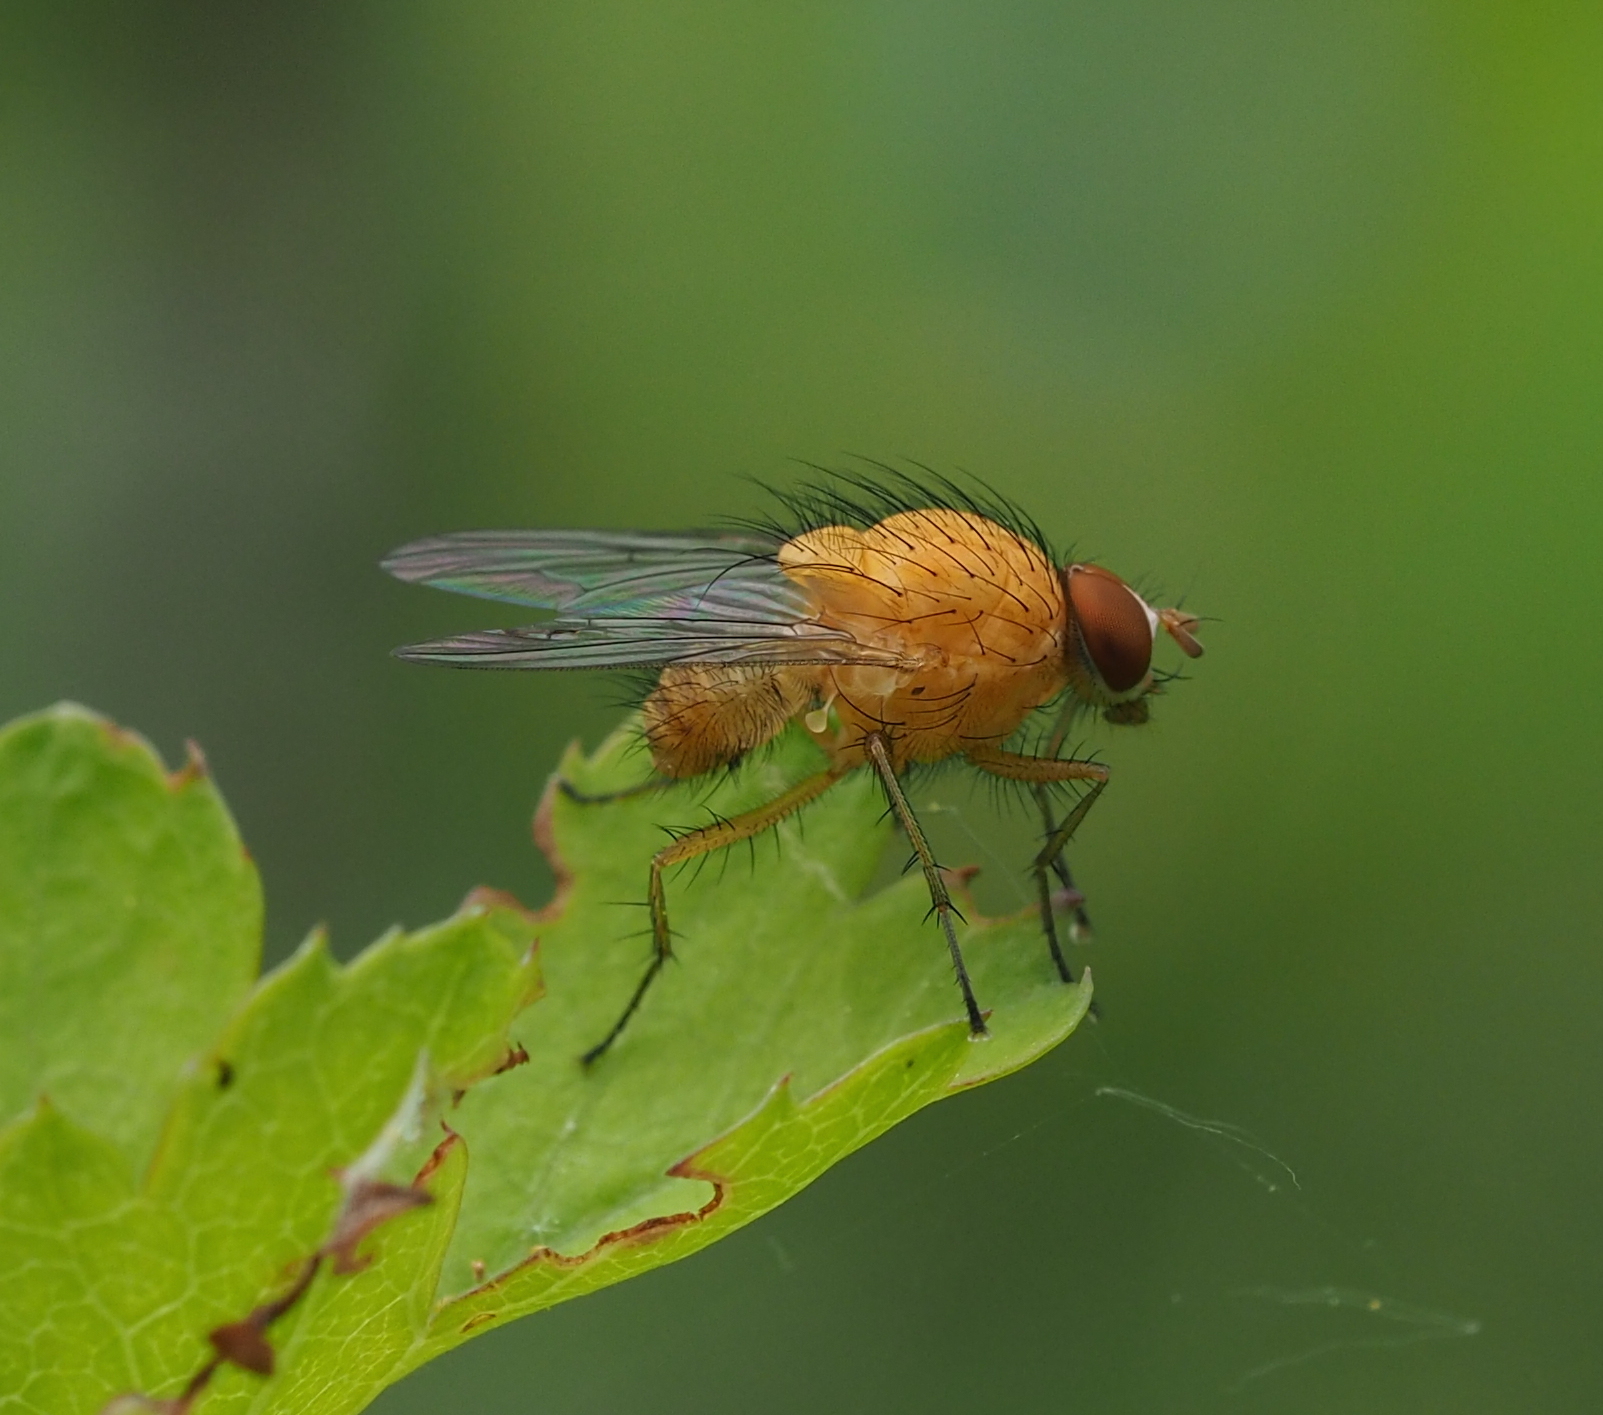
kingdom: Animalia
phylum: Arthropoda
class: Insecta
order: Diptera
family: Anthomyiidae
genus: Pegomya
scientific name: Pegomya testacea
